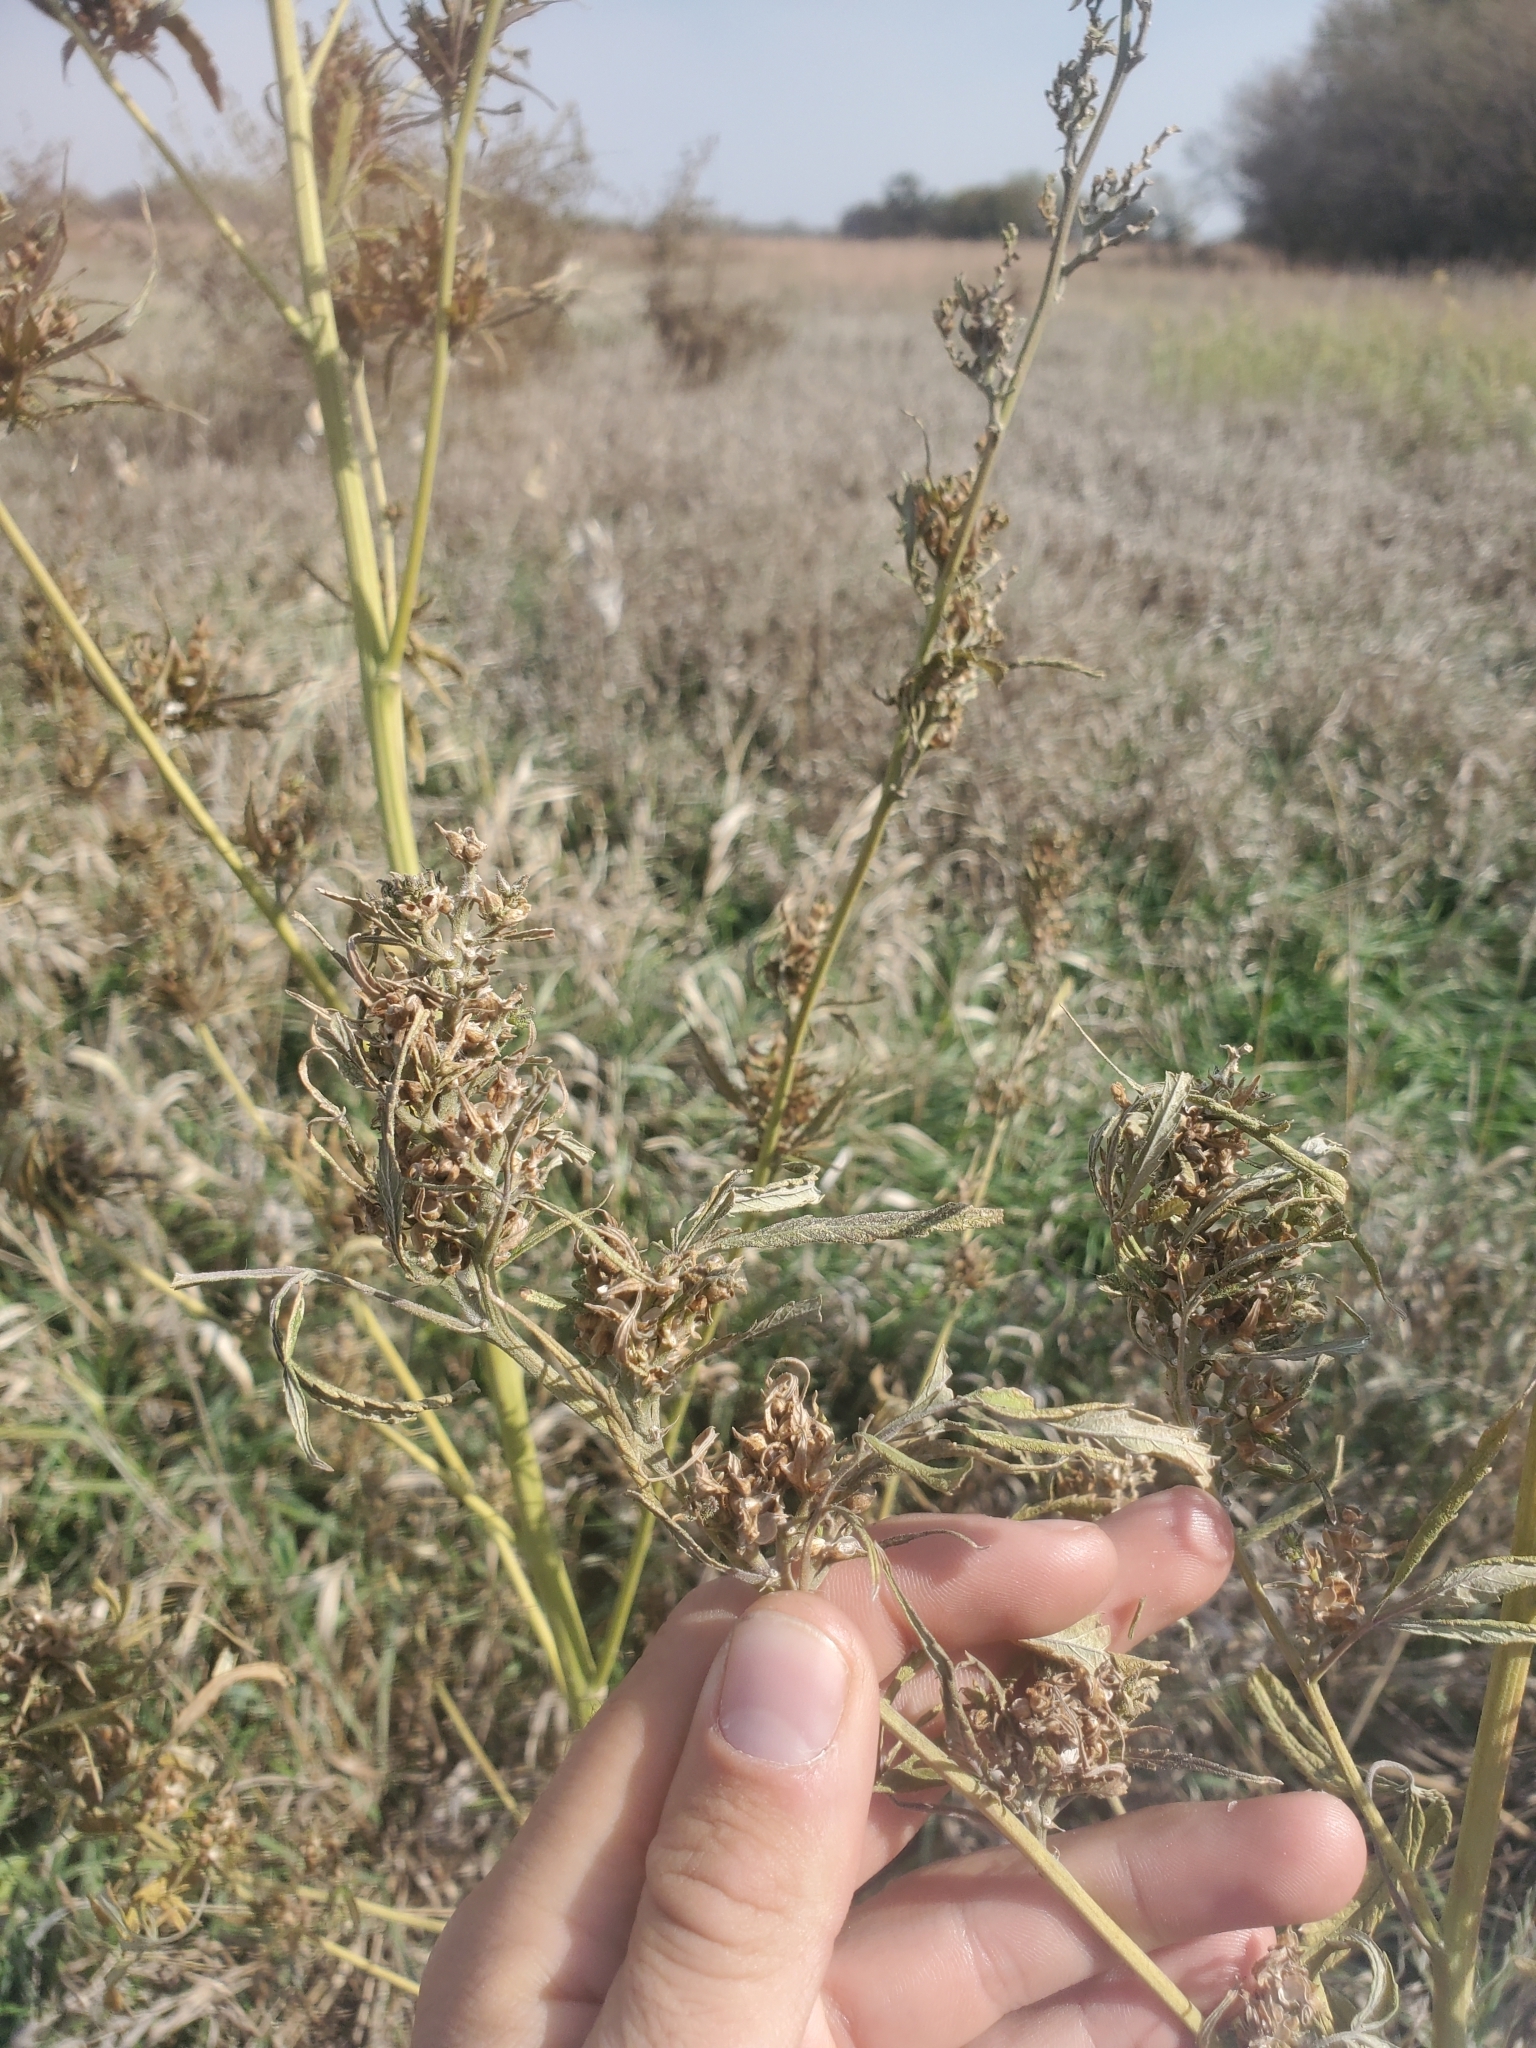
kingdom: Plantae
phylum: Tracheophyta
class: Magnoliopsida
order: Rosales
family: Cannabaceae
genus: Cannabis
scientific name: Cannabis sativa
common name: Hemp
